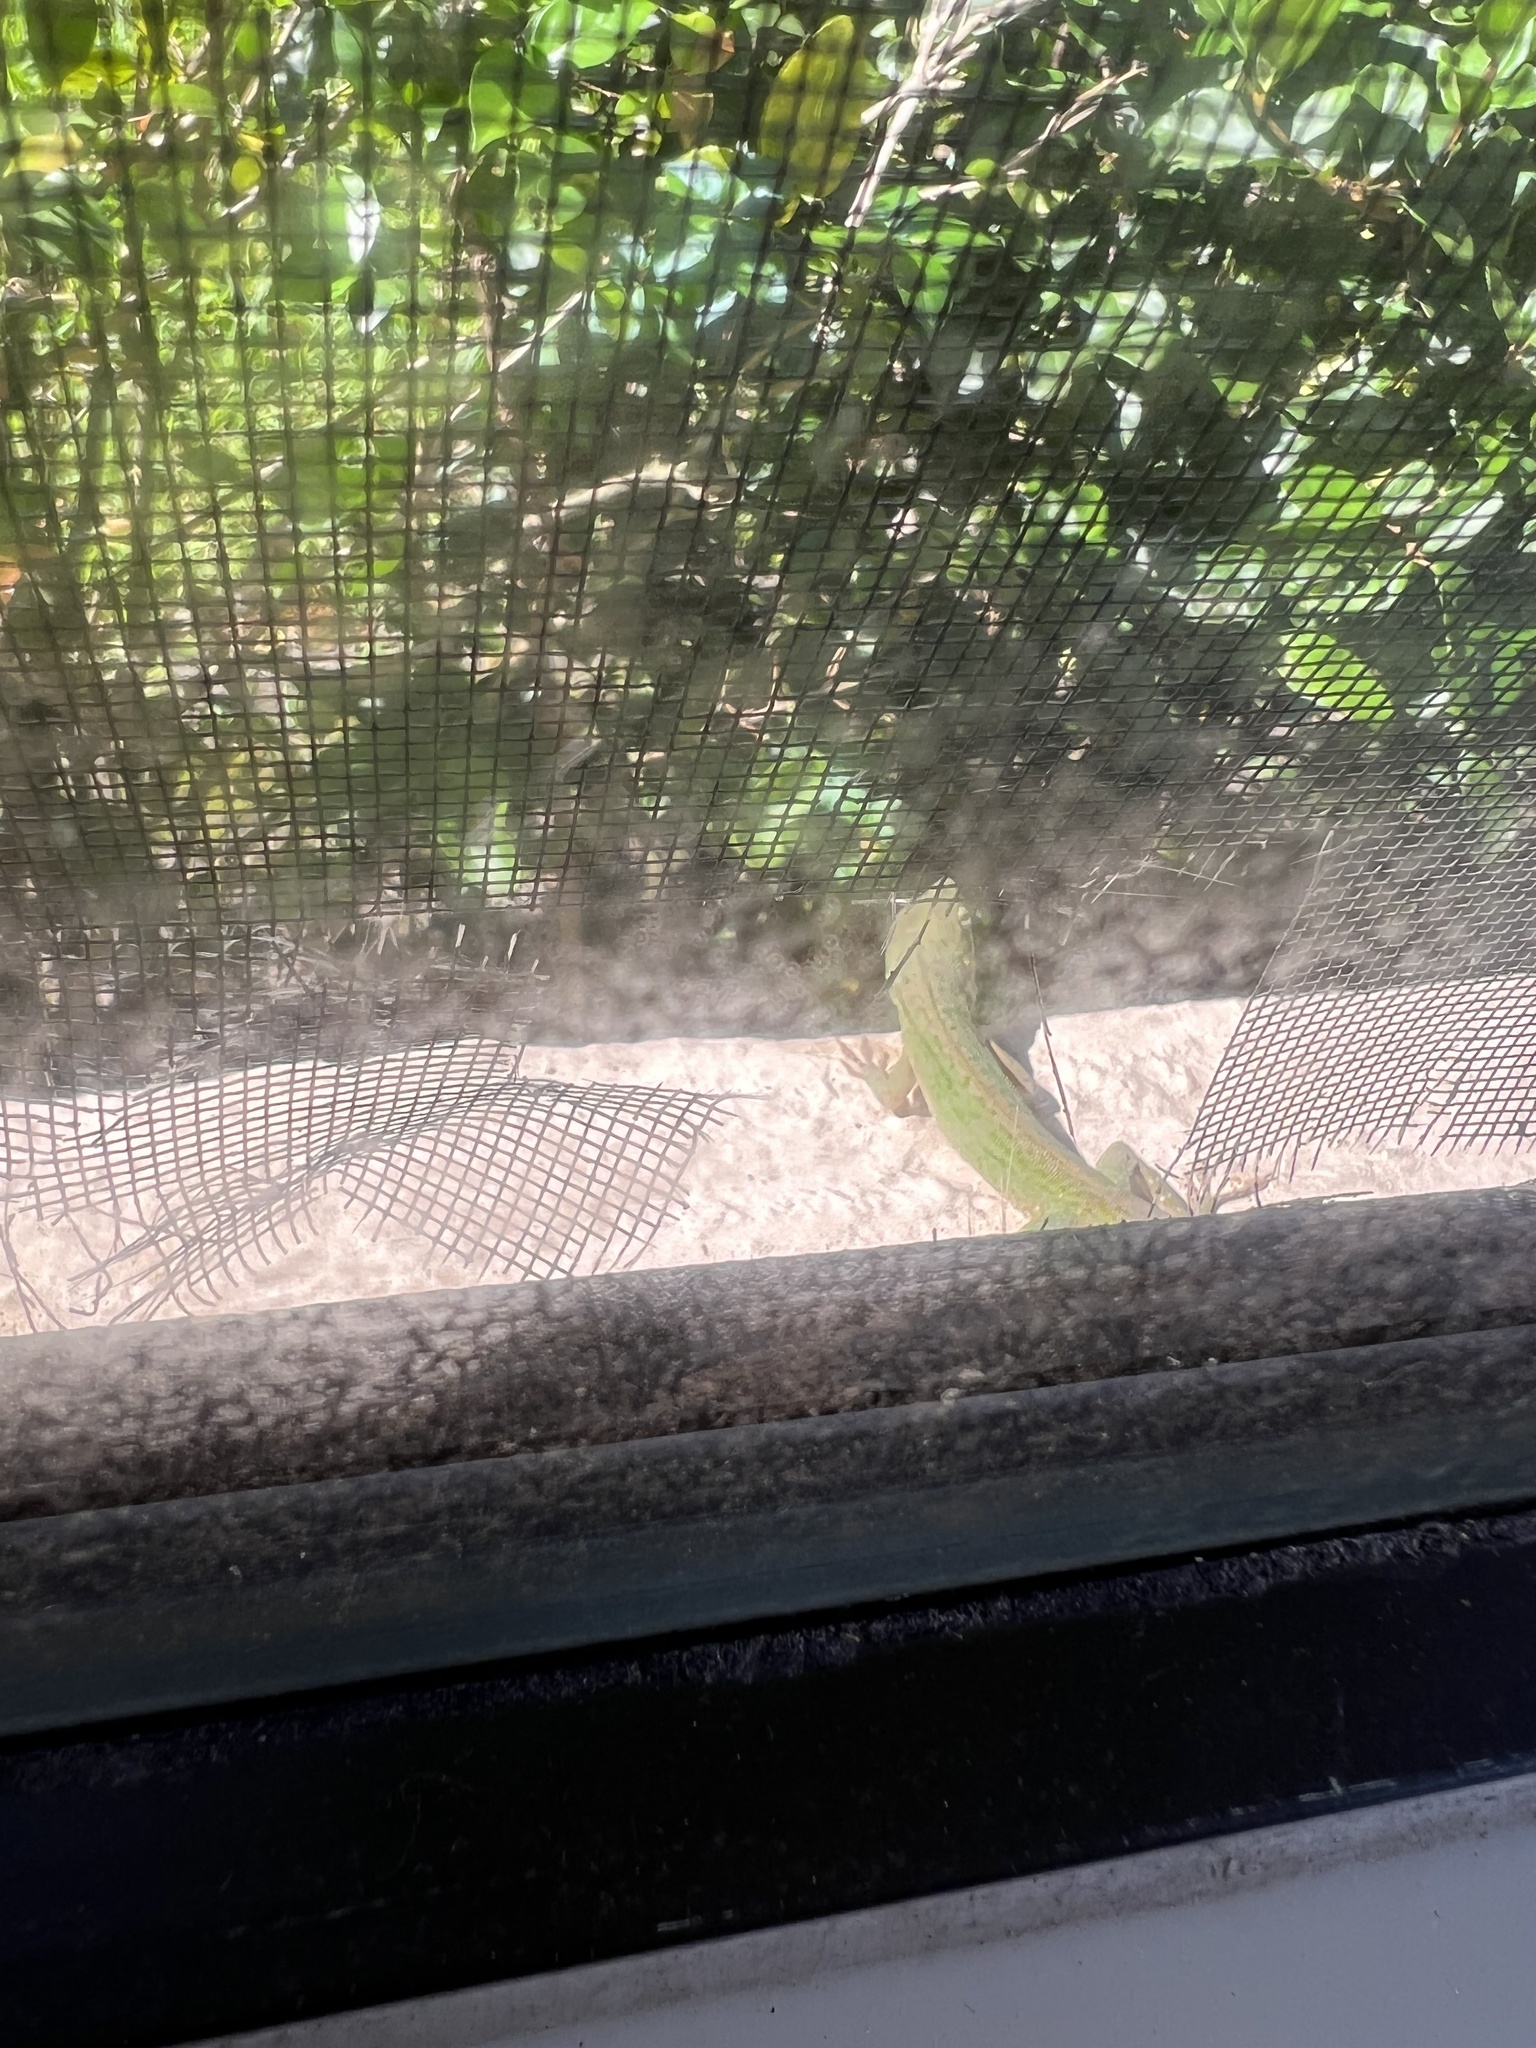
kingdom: Animalia
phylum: Chordata
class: Squamata
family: Dactyloidae
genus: Anolis
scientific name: Anolis carolinensis
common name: Green anole
